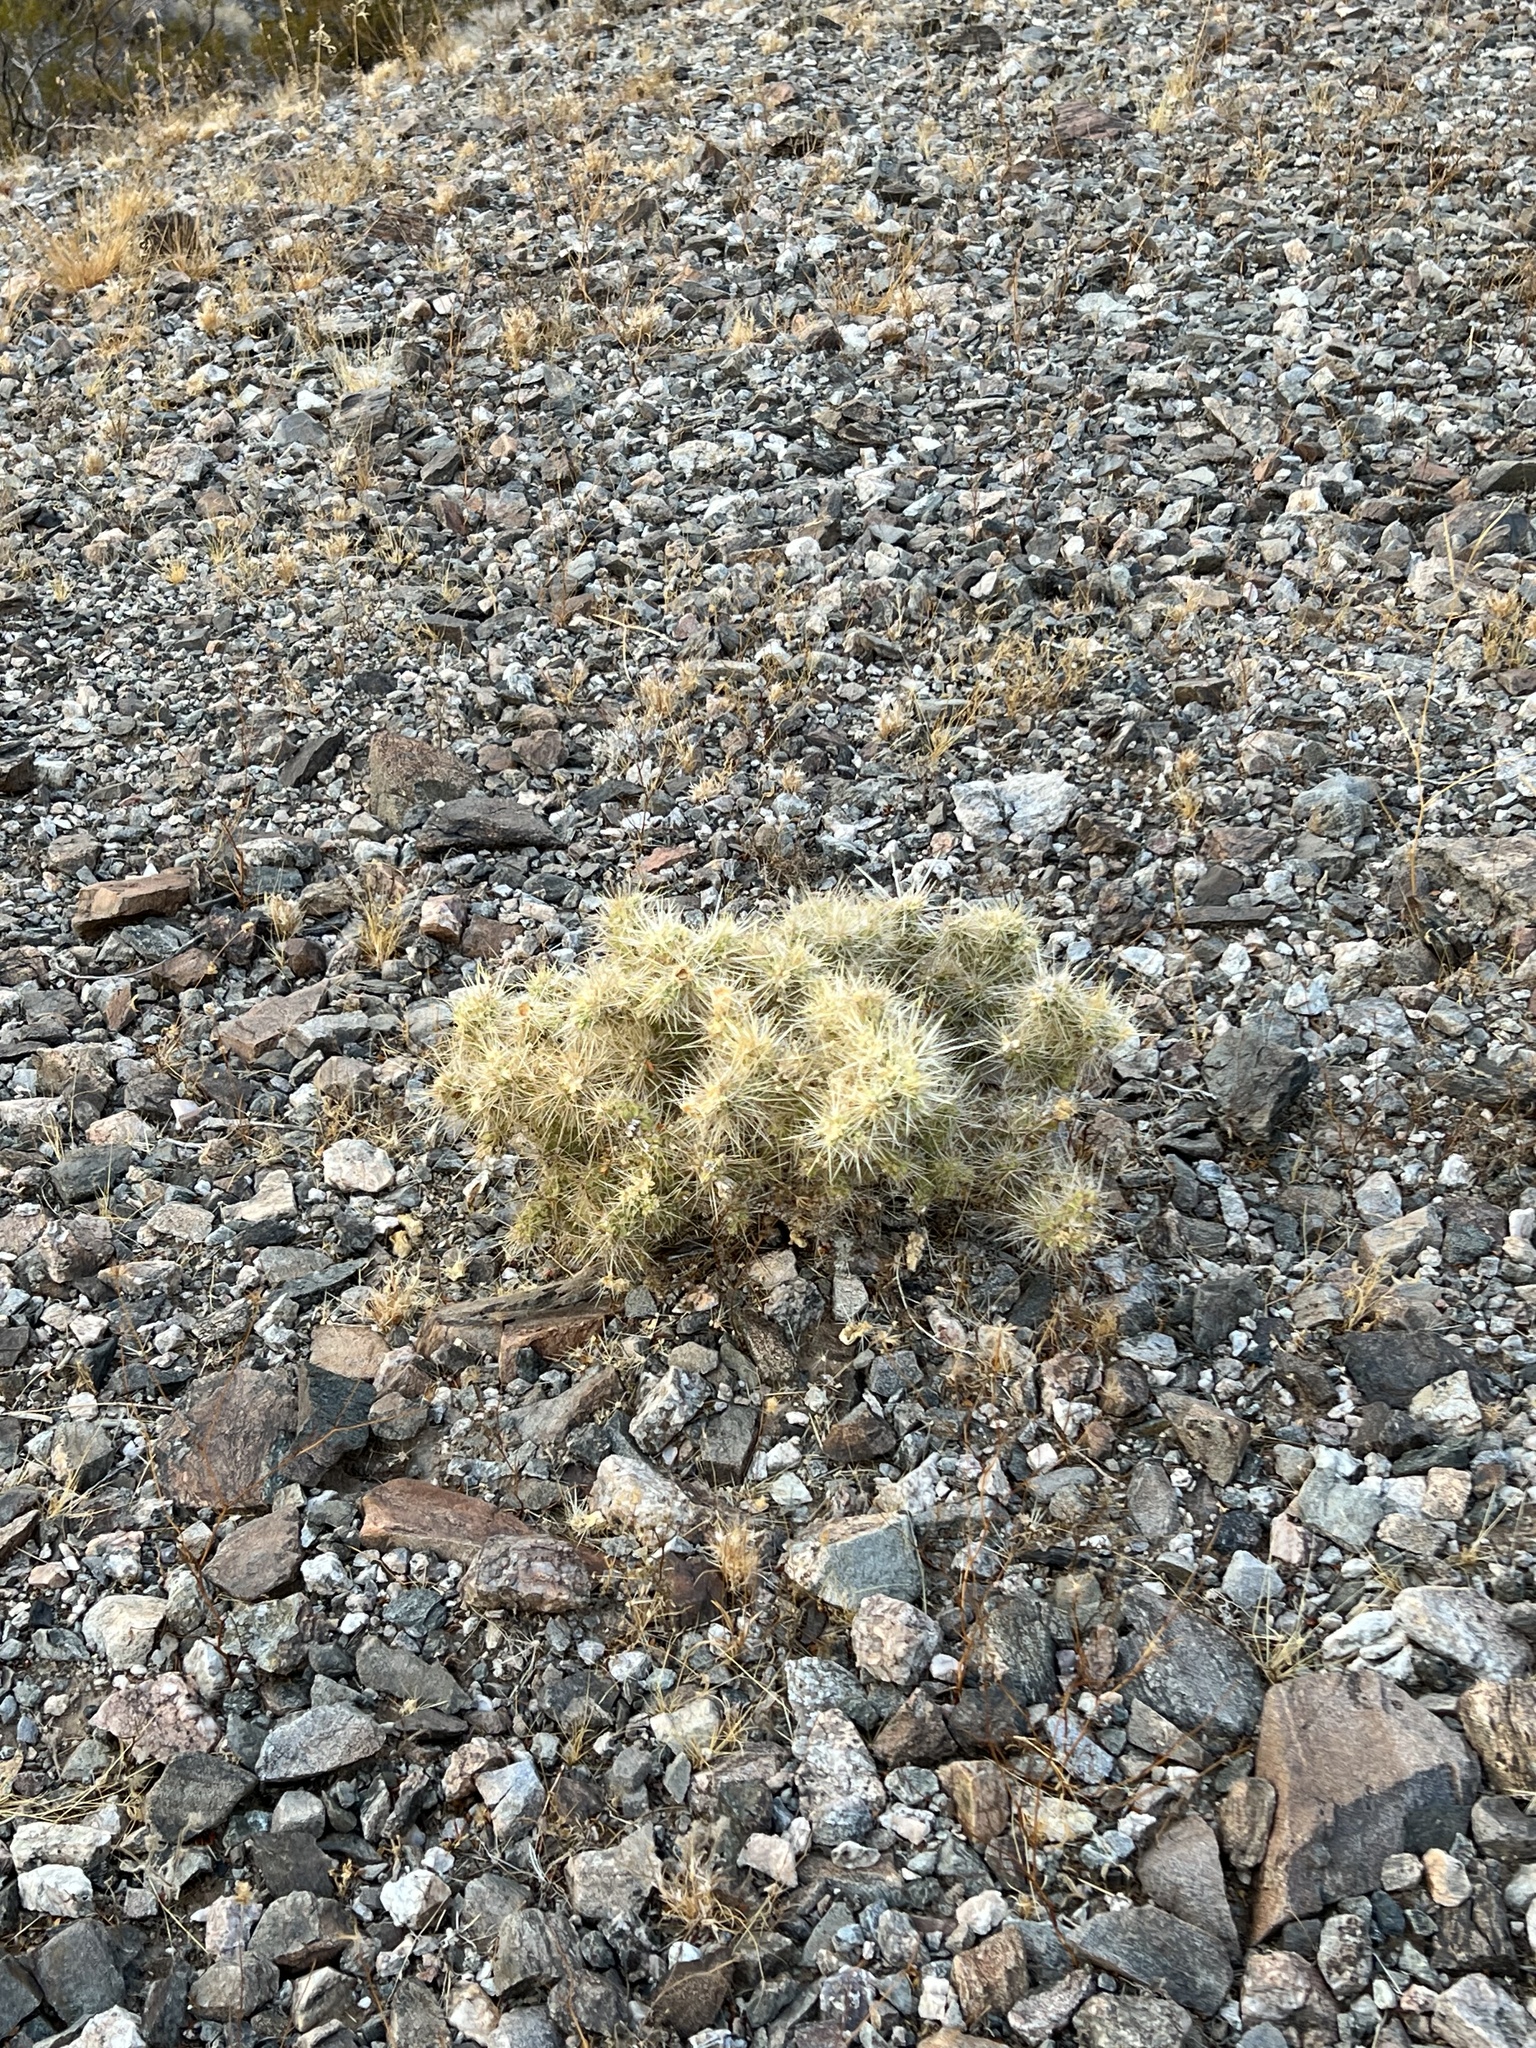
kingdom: Plantae
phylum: Tracheophyta
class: Magnoliopsida
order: Caryophyllales
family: Cactaceae
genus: Cylindropuntia
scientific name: Cylindropuntia echinocarpa
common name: Ground cholla
